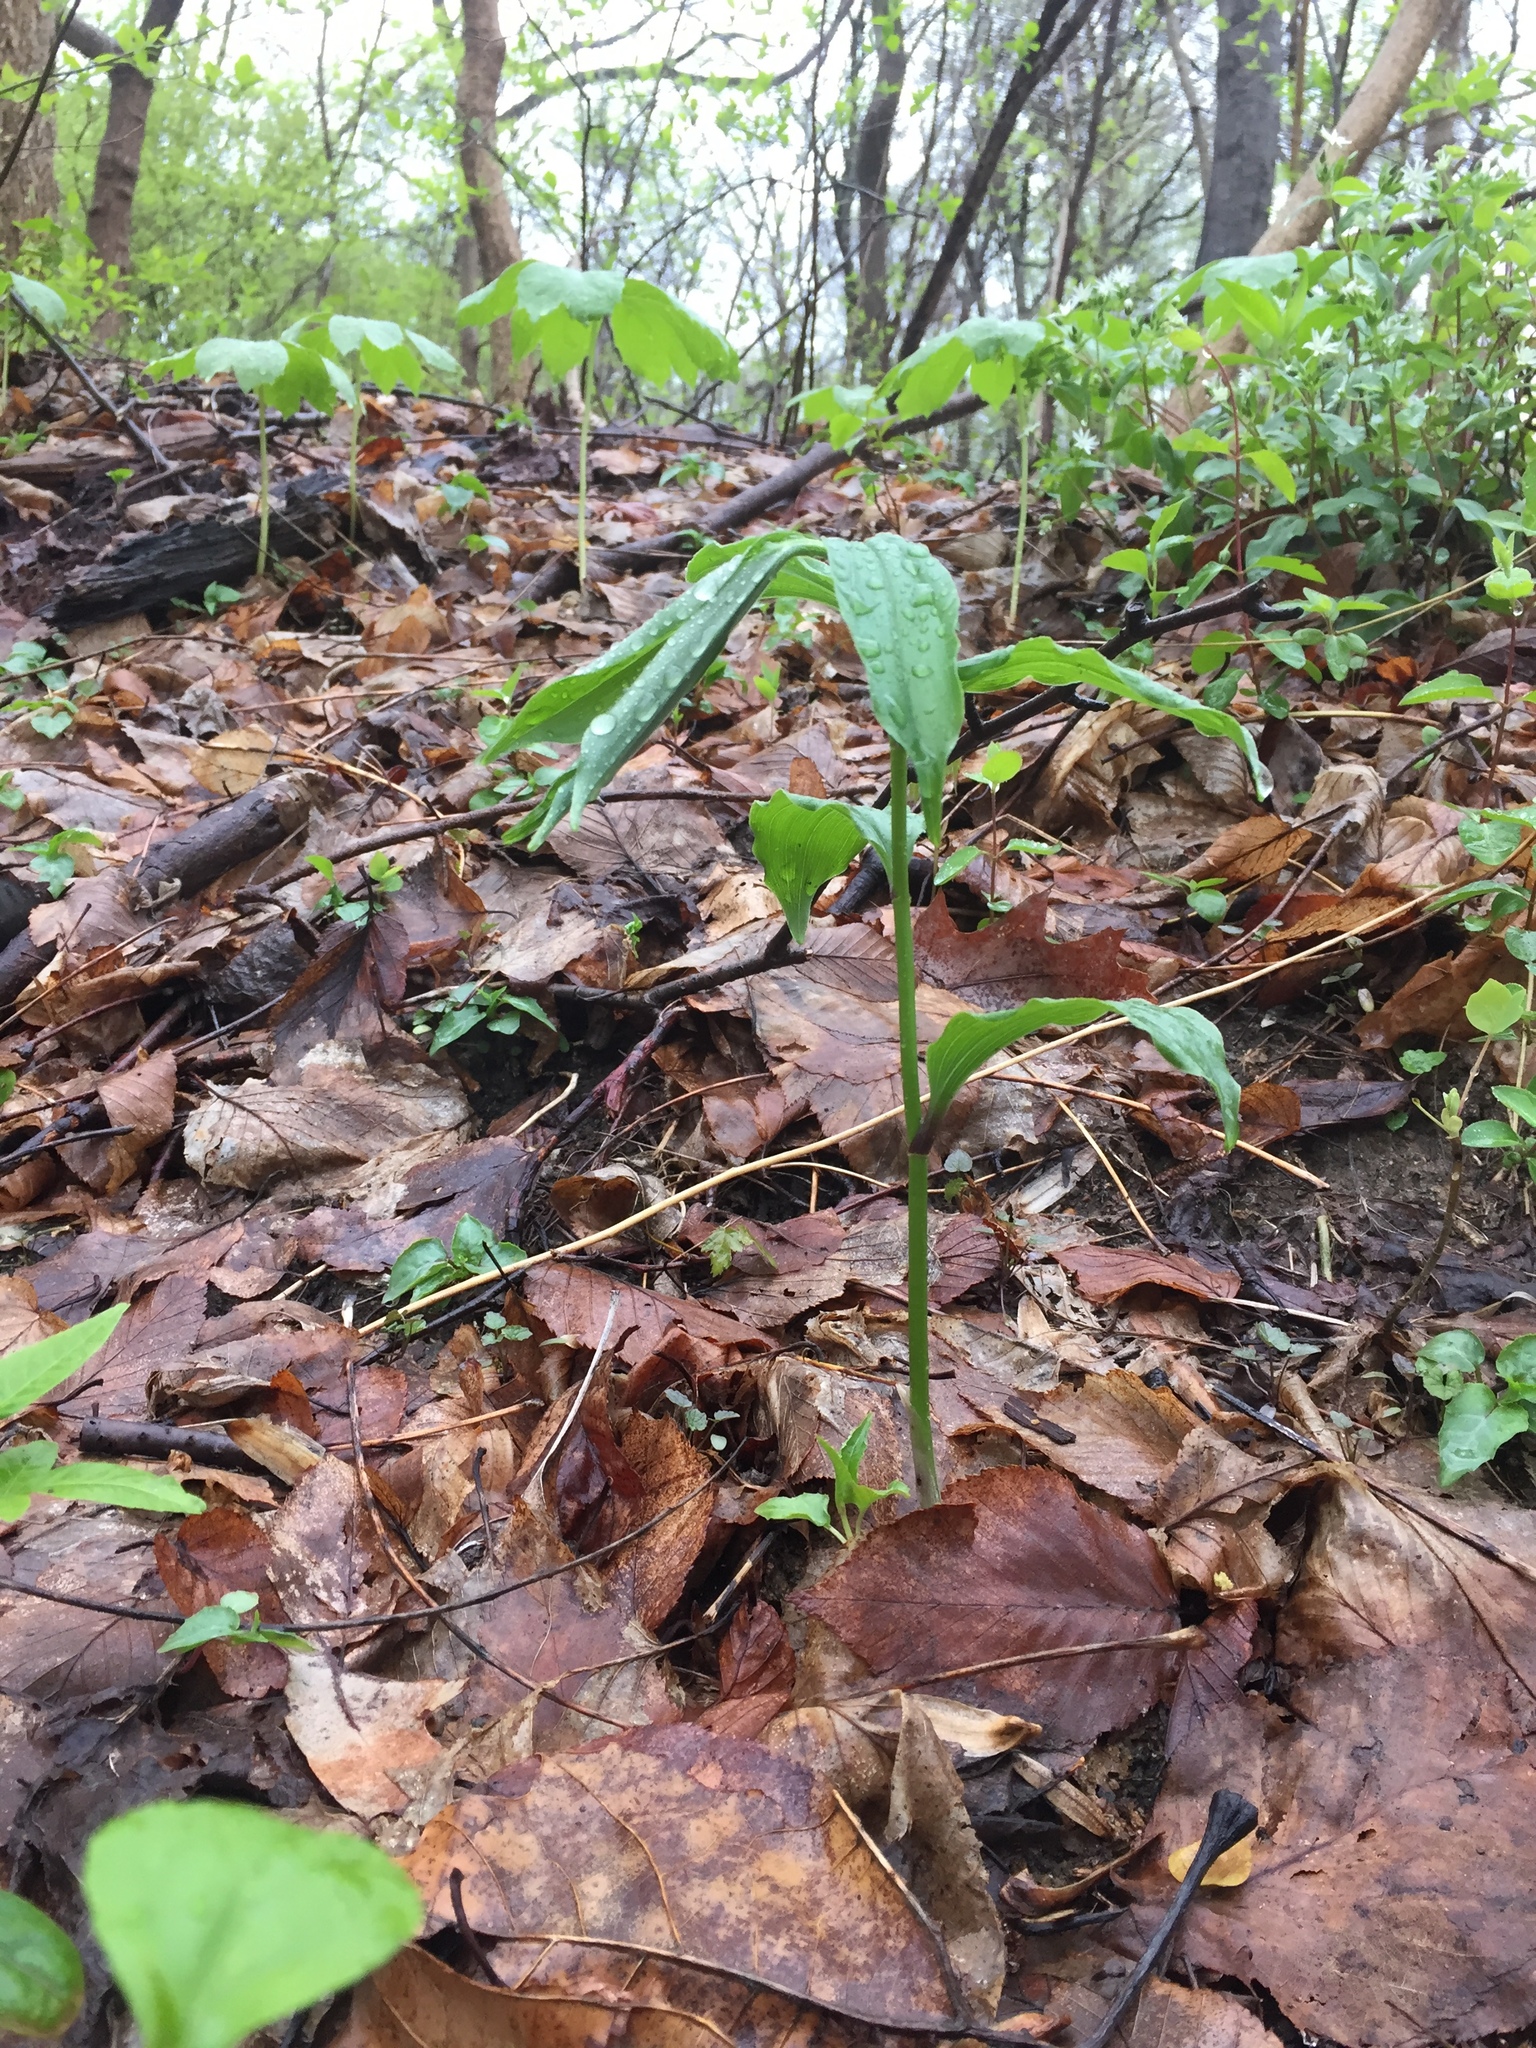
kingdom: Plantae
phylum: Tracheophyta
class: Liliopsida
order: Asparagales
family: Asparagaceae
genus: Maianthemum
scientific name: Maianthemum racemosum
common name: False spikenard
